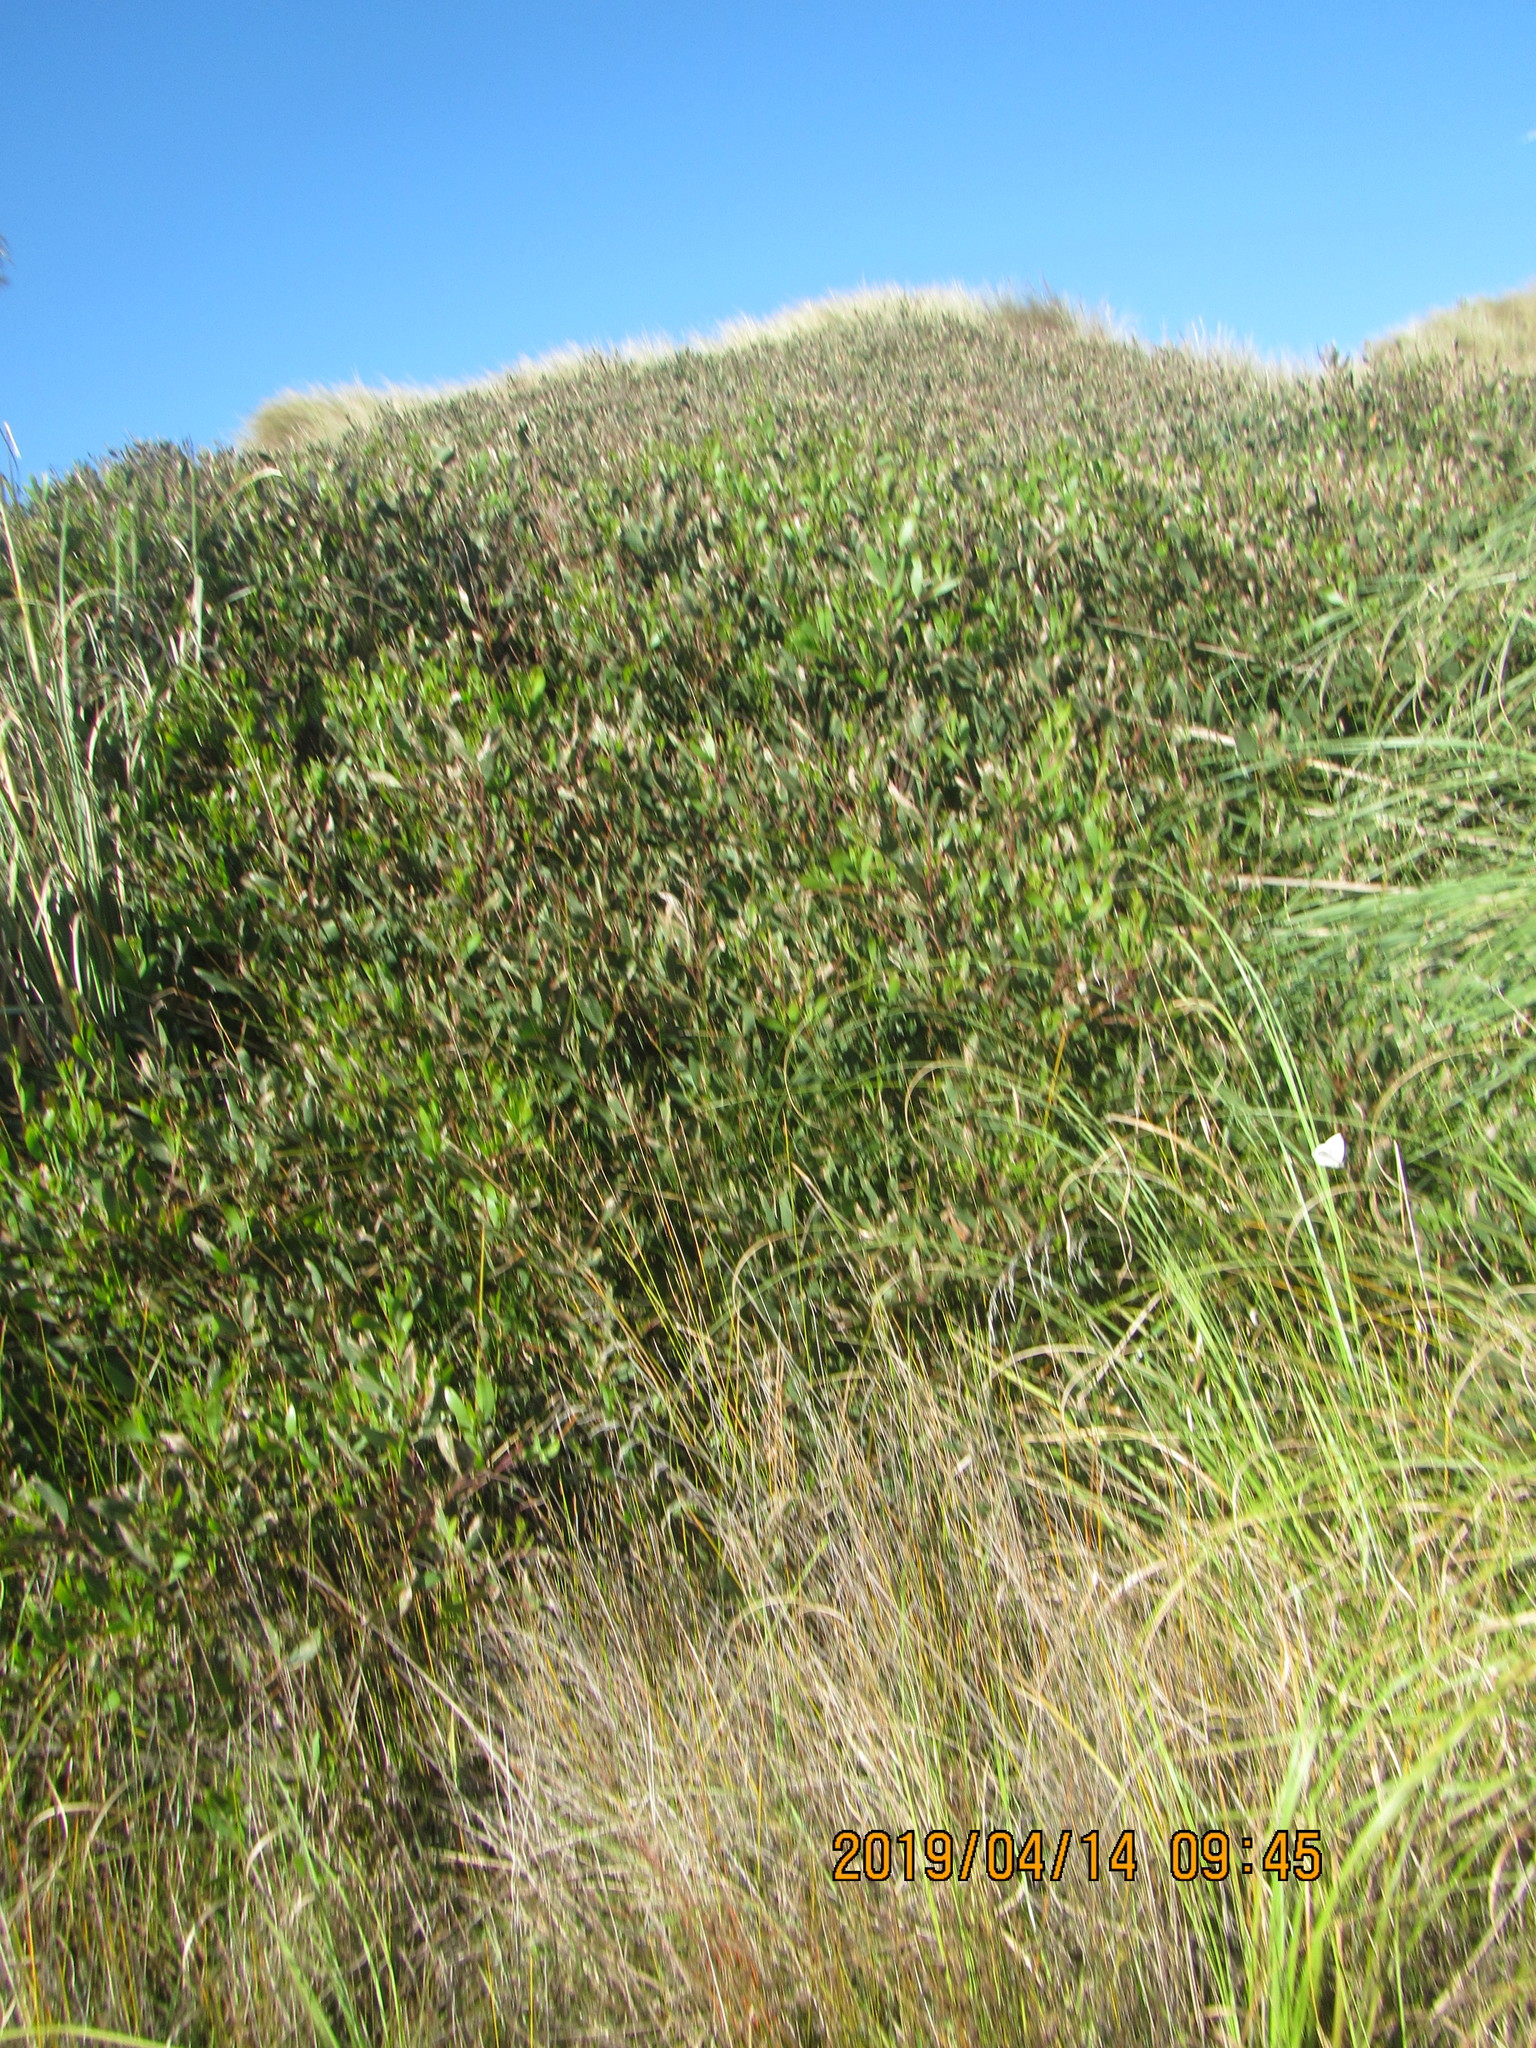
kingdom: Plantae
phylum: Tracheophyta
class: Magnoliopsida
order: Fabales
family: Fabaceae
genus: Acacia
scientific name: Acacia longifolia
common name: Sydney golden wattle
